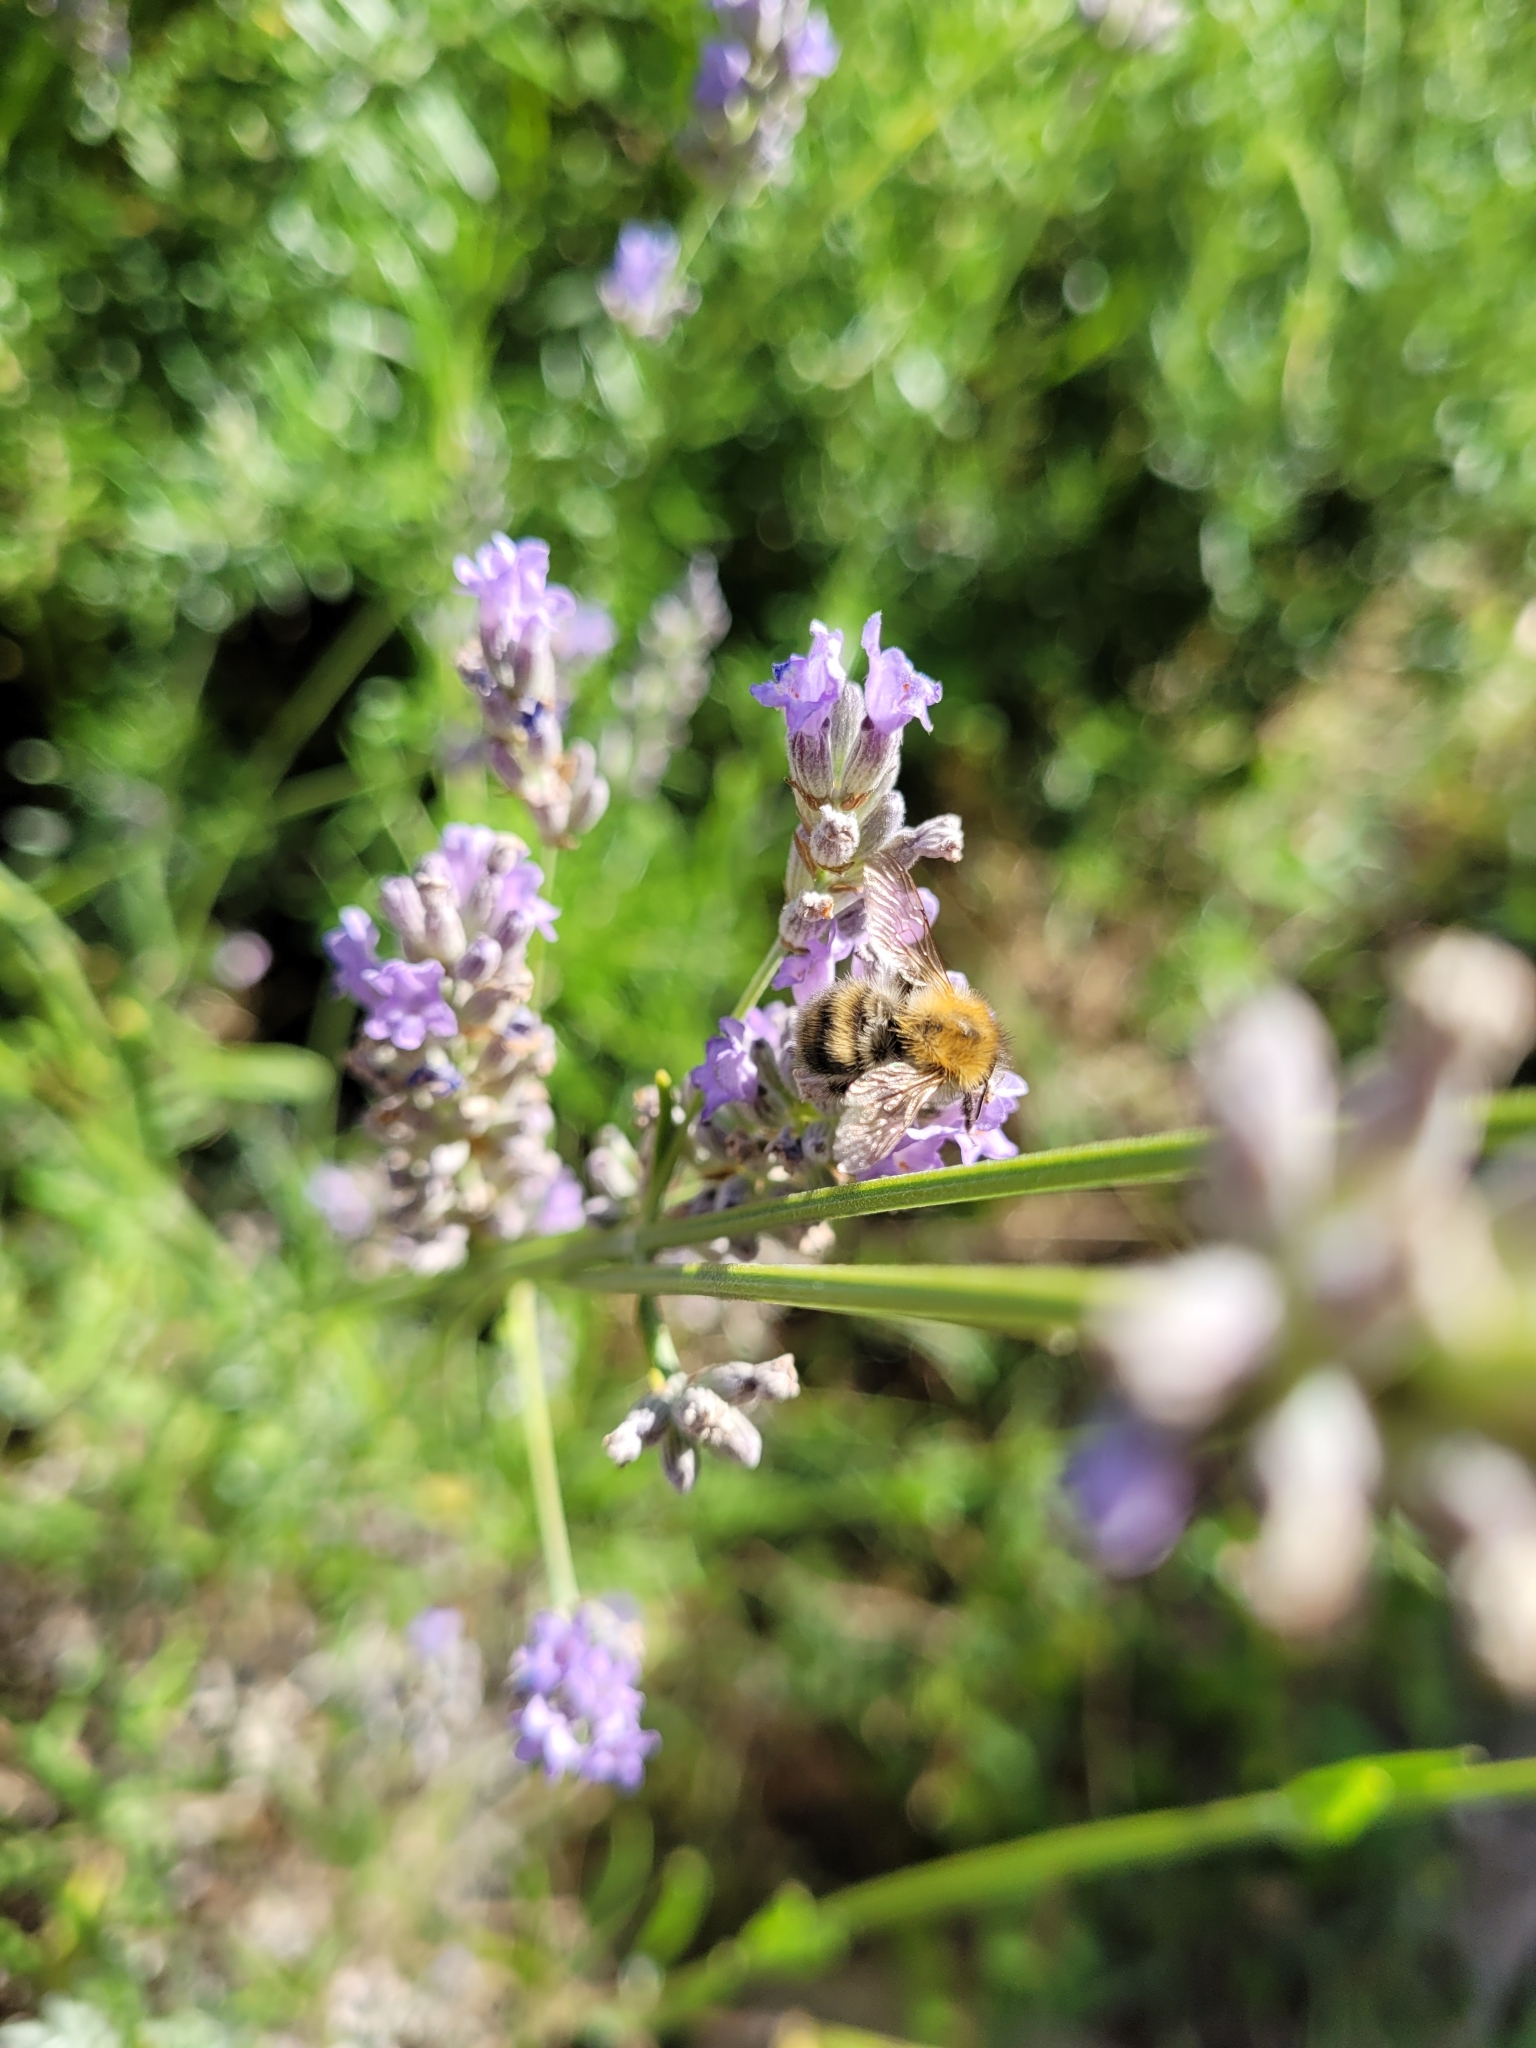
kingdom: Animalia
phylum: Arthropoda
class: Insecta
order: Hymenoptera
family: Apidae
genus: Bombus
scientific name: Bombus pascuorum
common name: Common carder bee
